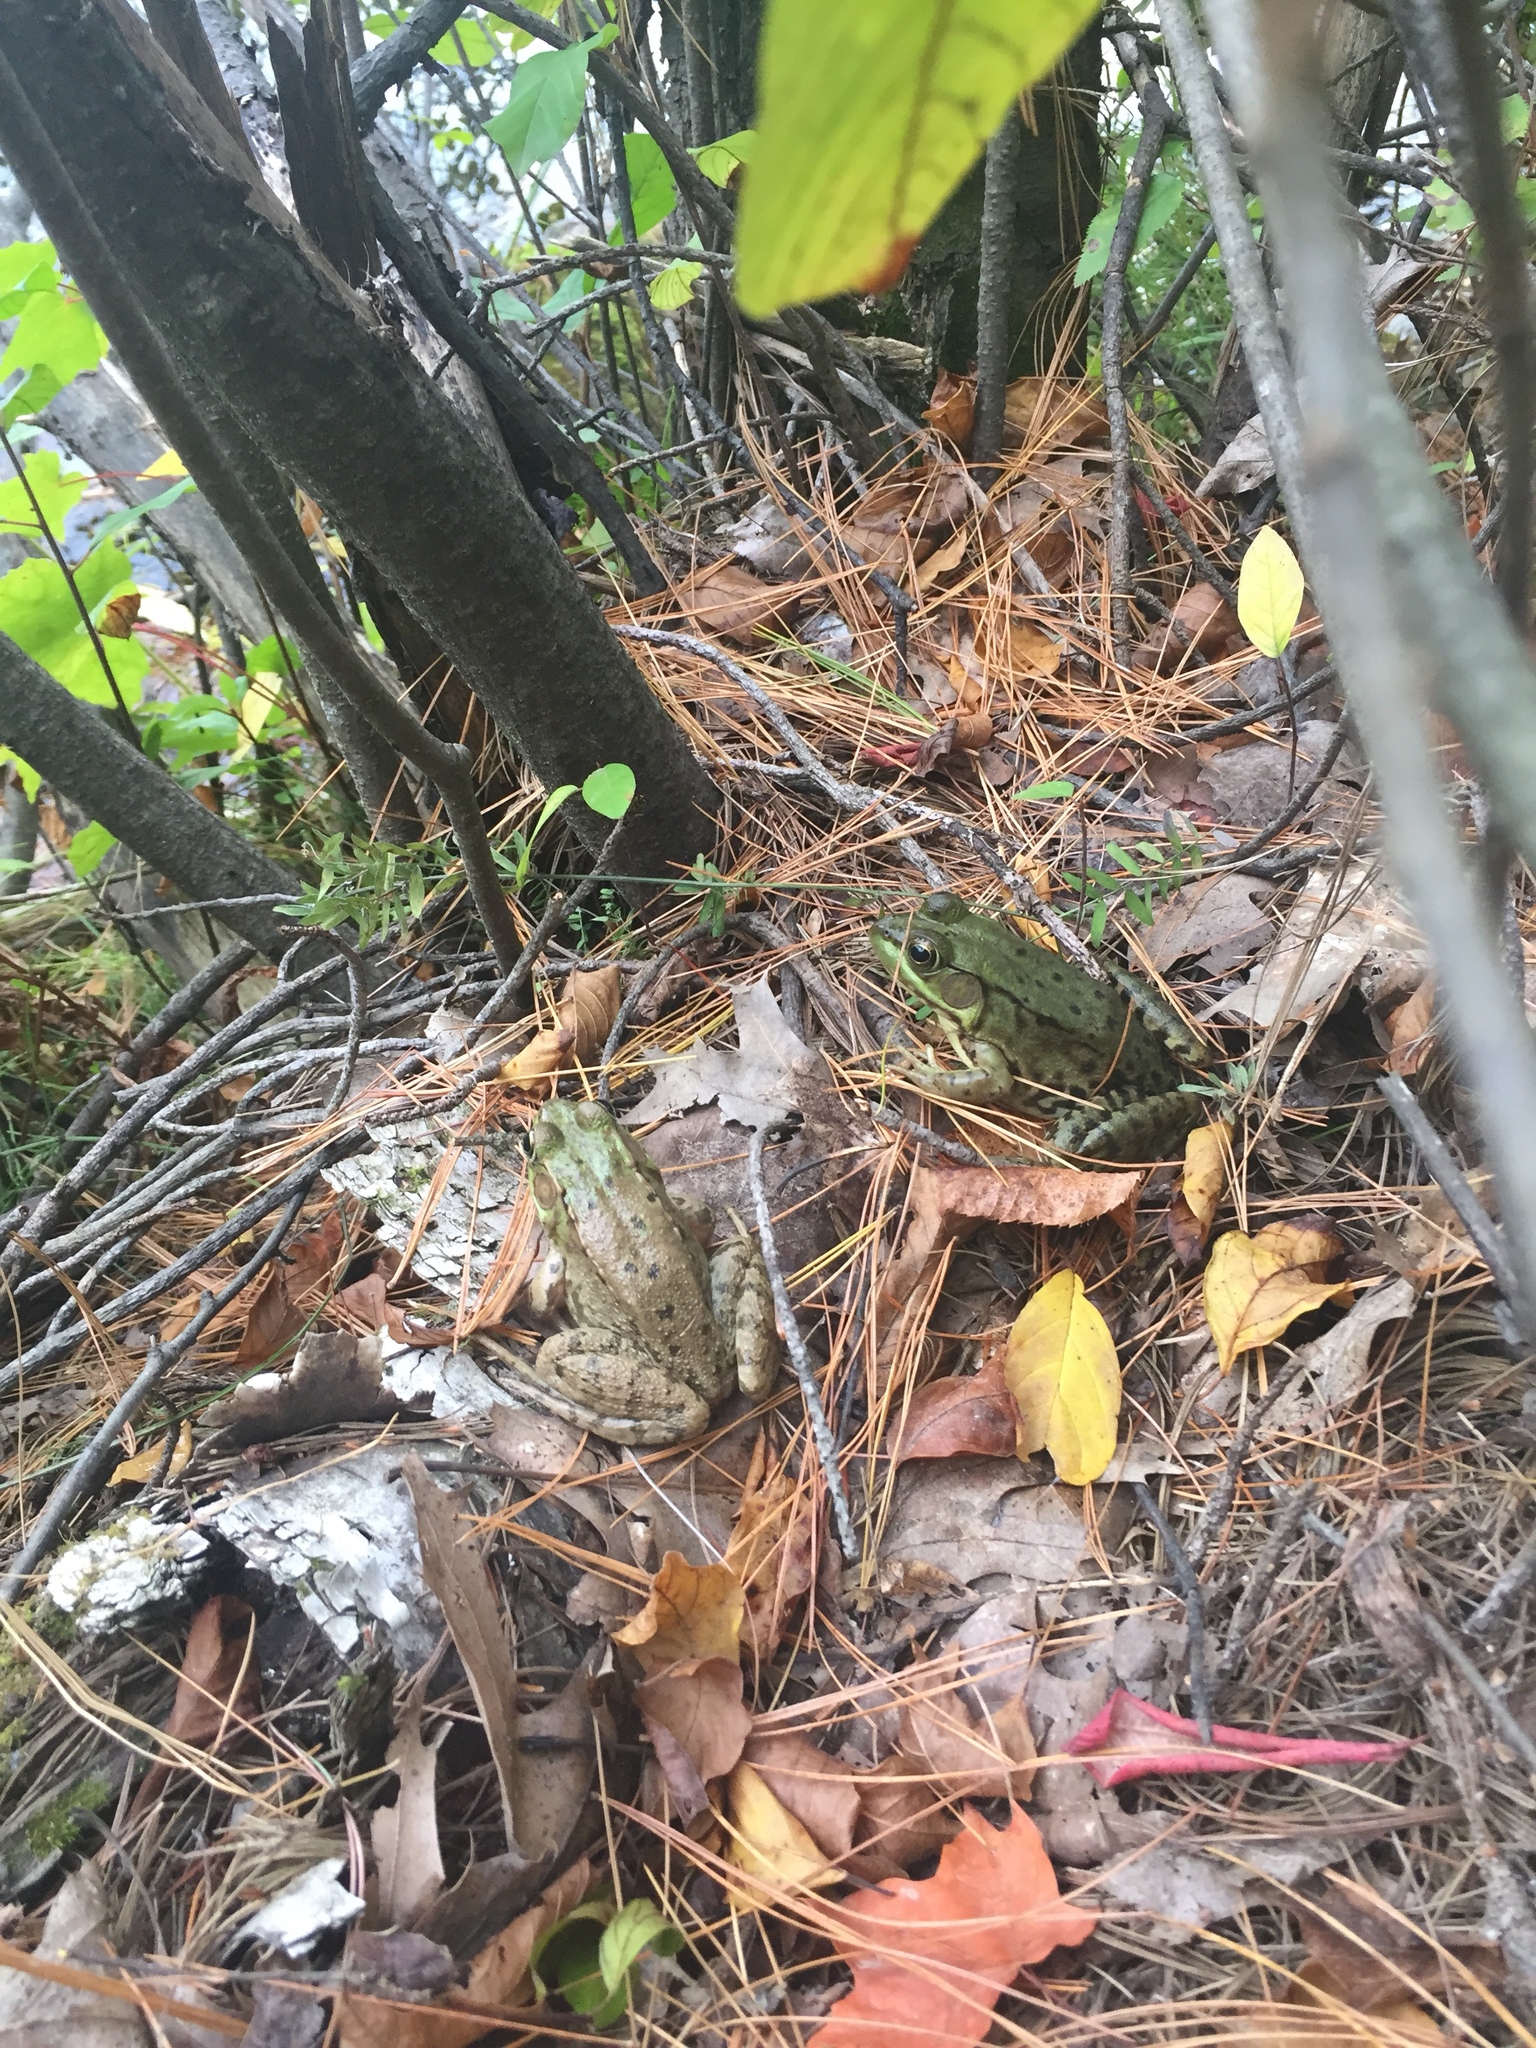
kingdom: Animalia
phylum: Chordata
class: Amphibia
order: Anura
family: Ranidae
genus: Lithobates
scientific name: Lithobates clamitans
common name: Green frog
